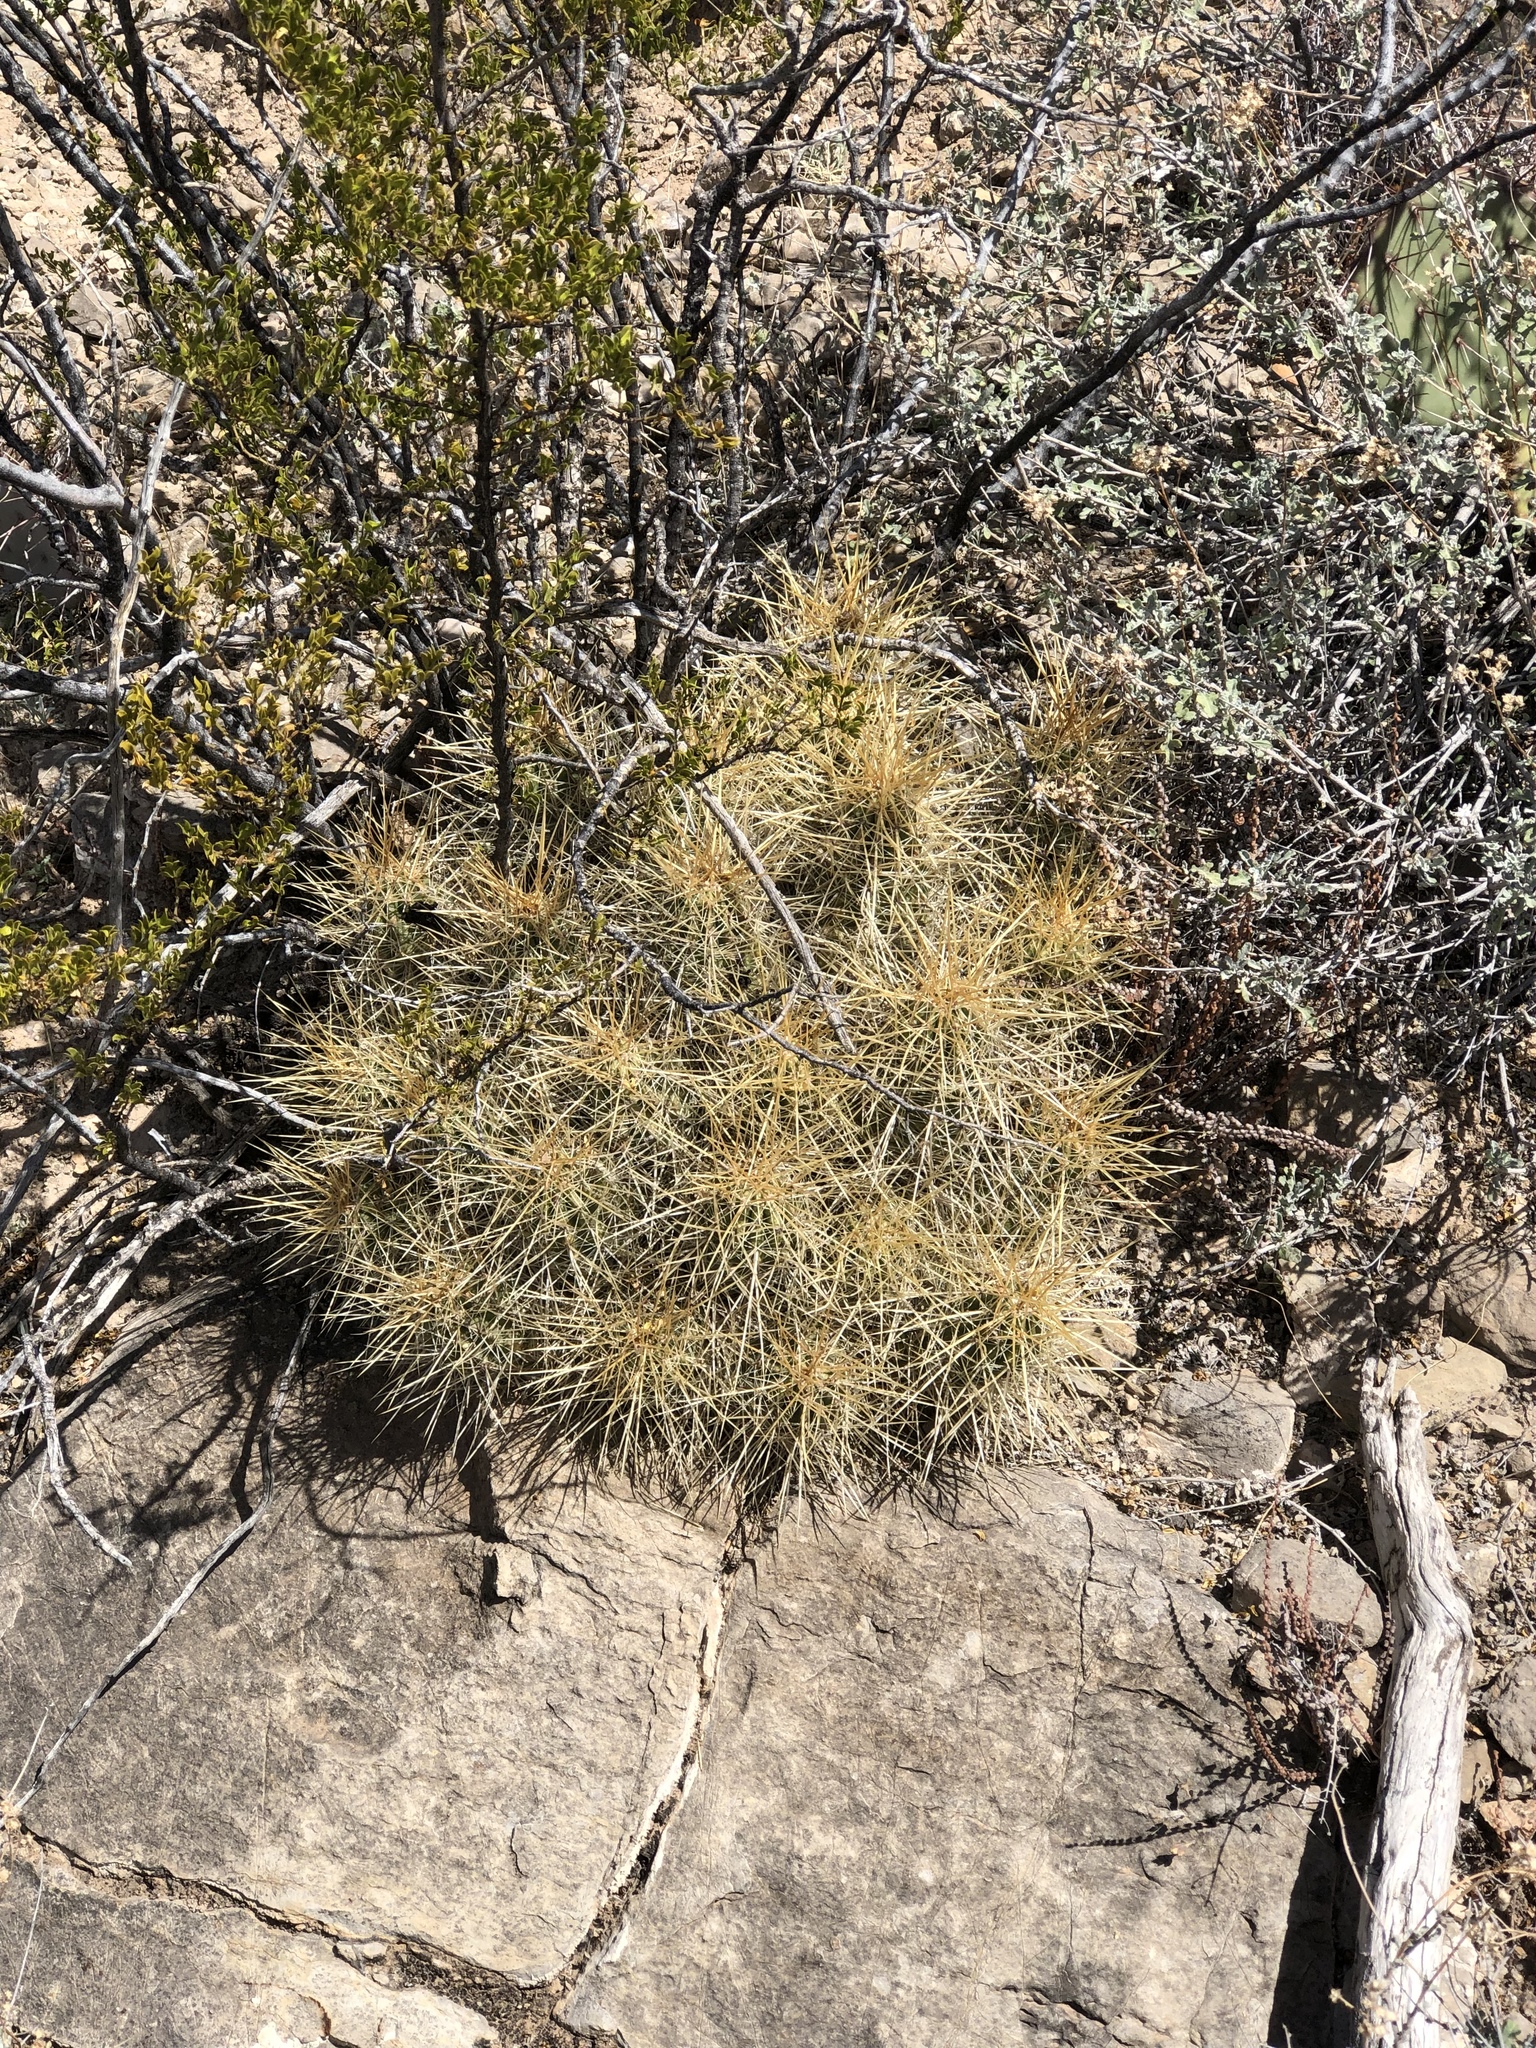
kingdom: Plantae
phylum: Tracheophyta
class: Magnoliopsida
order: Caryophyllales
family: Cactaceae
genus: Echinocereus
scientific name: Echinocereus stramineus
